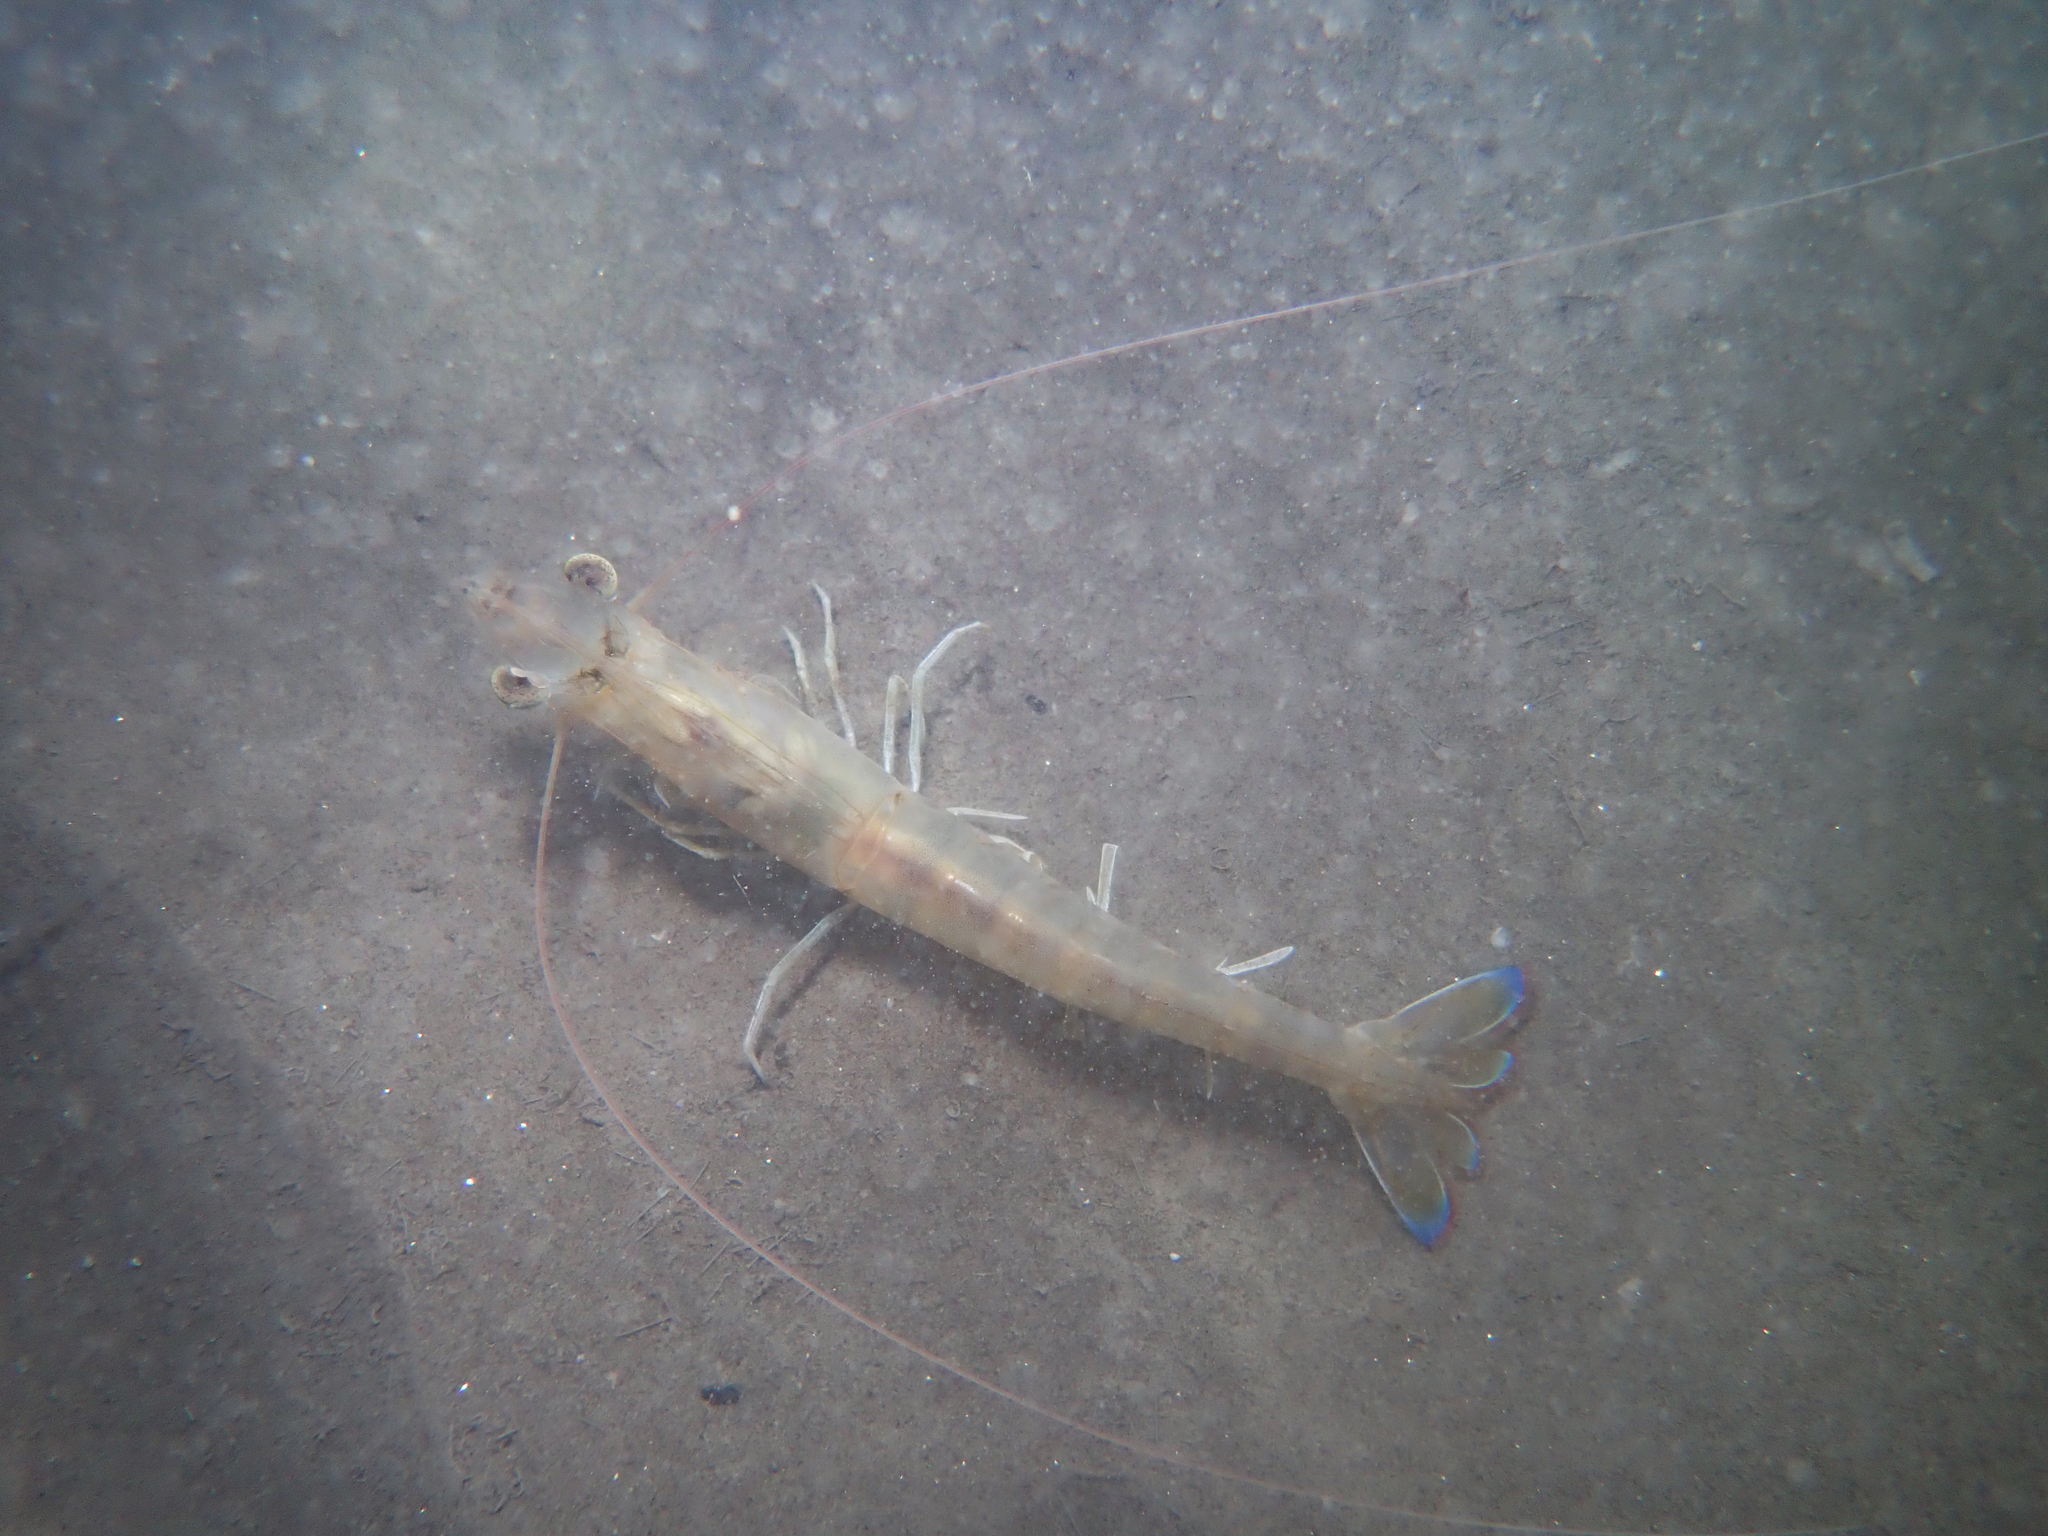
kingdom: Animalia
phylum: Arthropoda
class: Malacostraca
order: Decapoda
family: Penaeidae
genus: Penaeus
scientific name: Penaeus kerathurus
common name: Caramote prawn
